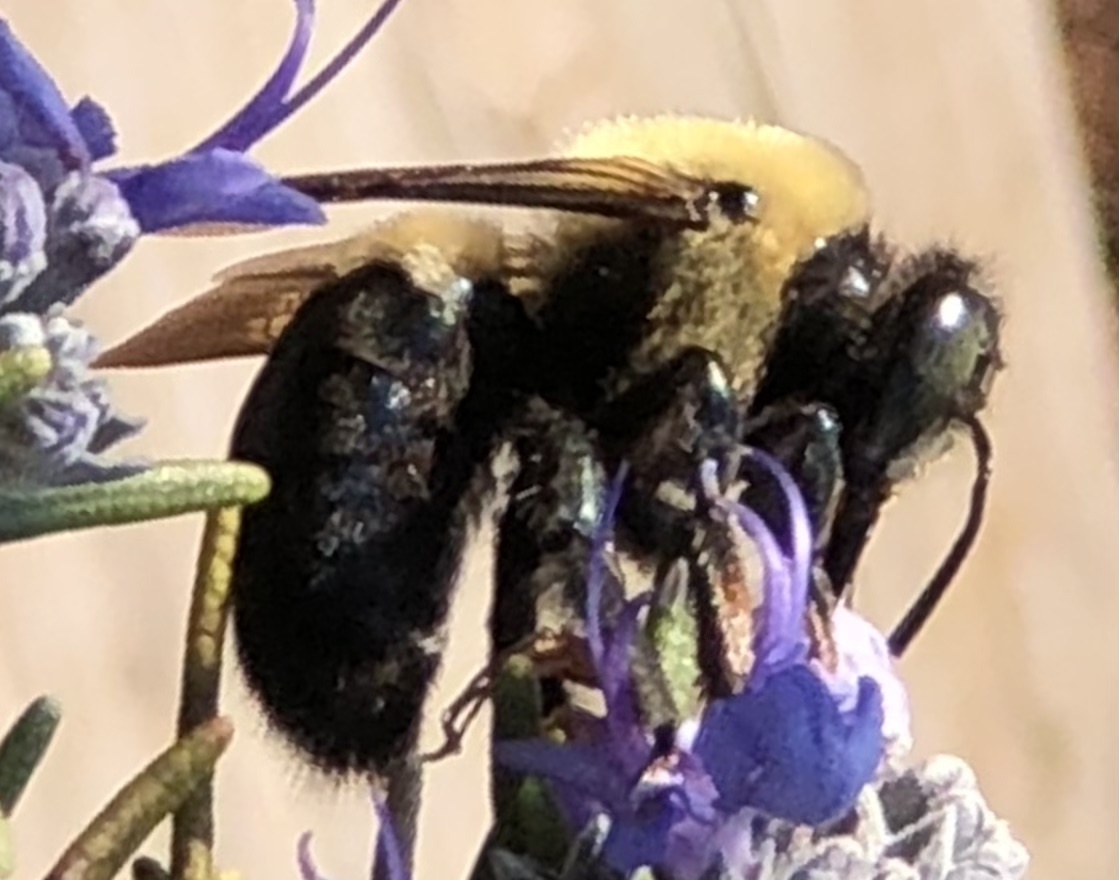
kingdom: Animalia
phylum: Arthropoda
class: Insecta
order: Hymenoptera
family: Apidae
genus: Xylocopa
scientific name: Xylocopa virginica
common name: Carpenter bee
